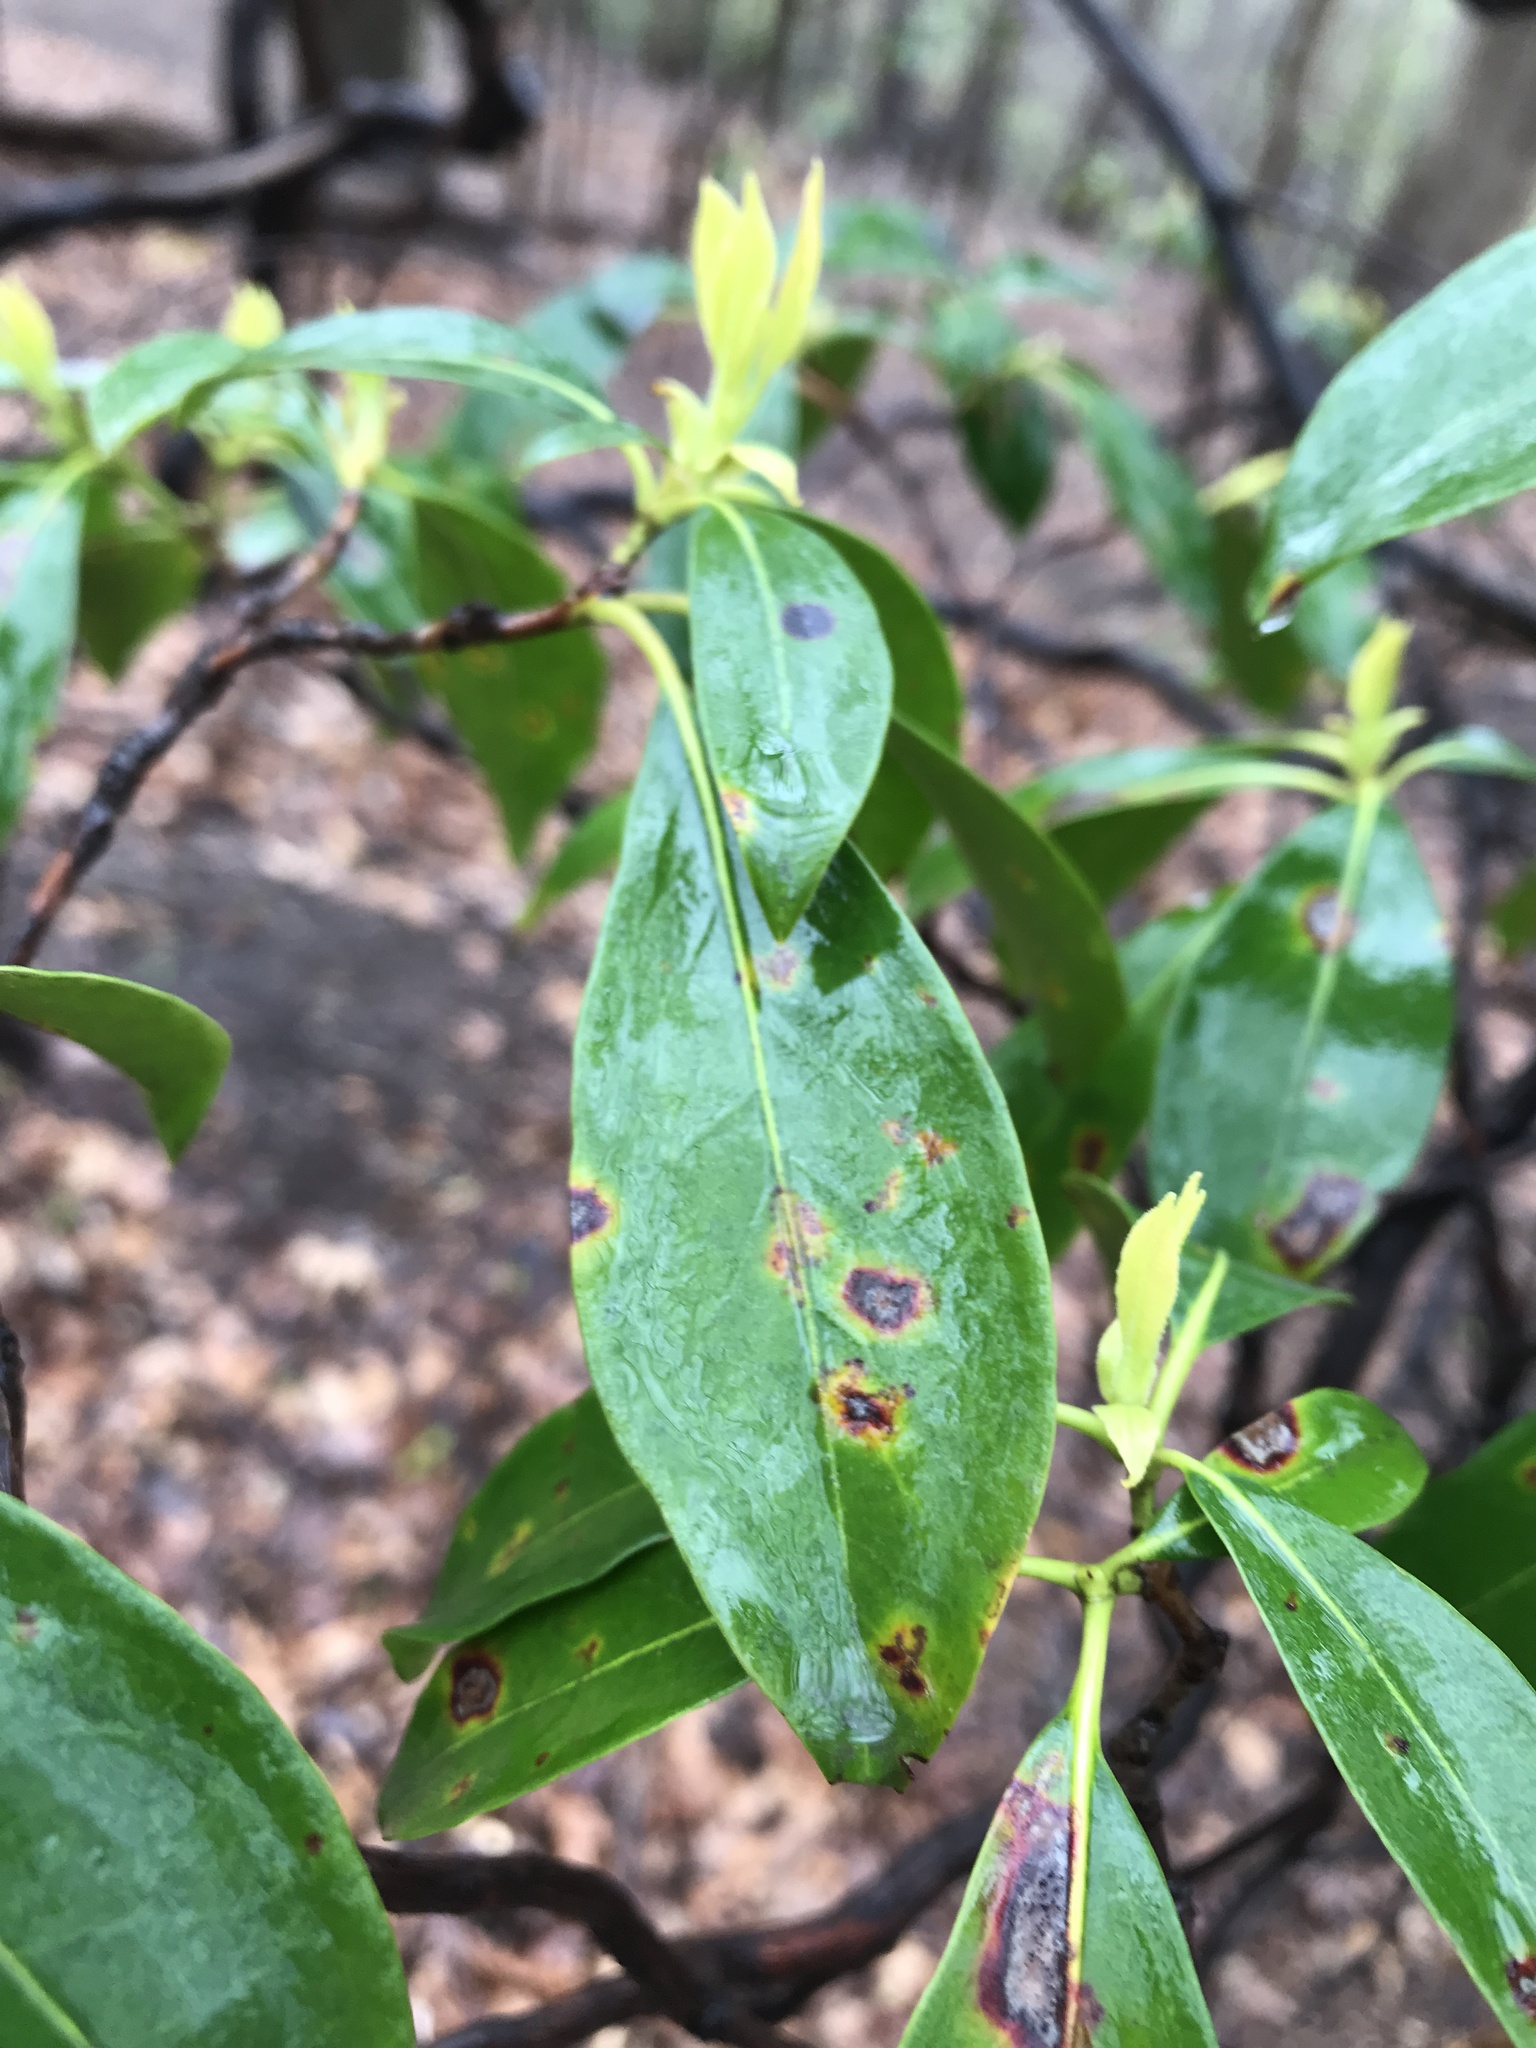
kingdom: Fungi
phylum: Ascomycota
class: Sordariomycetes
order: Diaporthales
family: Diaporthaceae
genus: Diaporthe
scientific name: Diaporthe kalmiae
